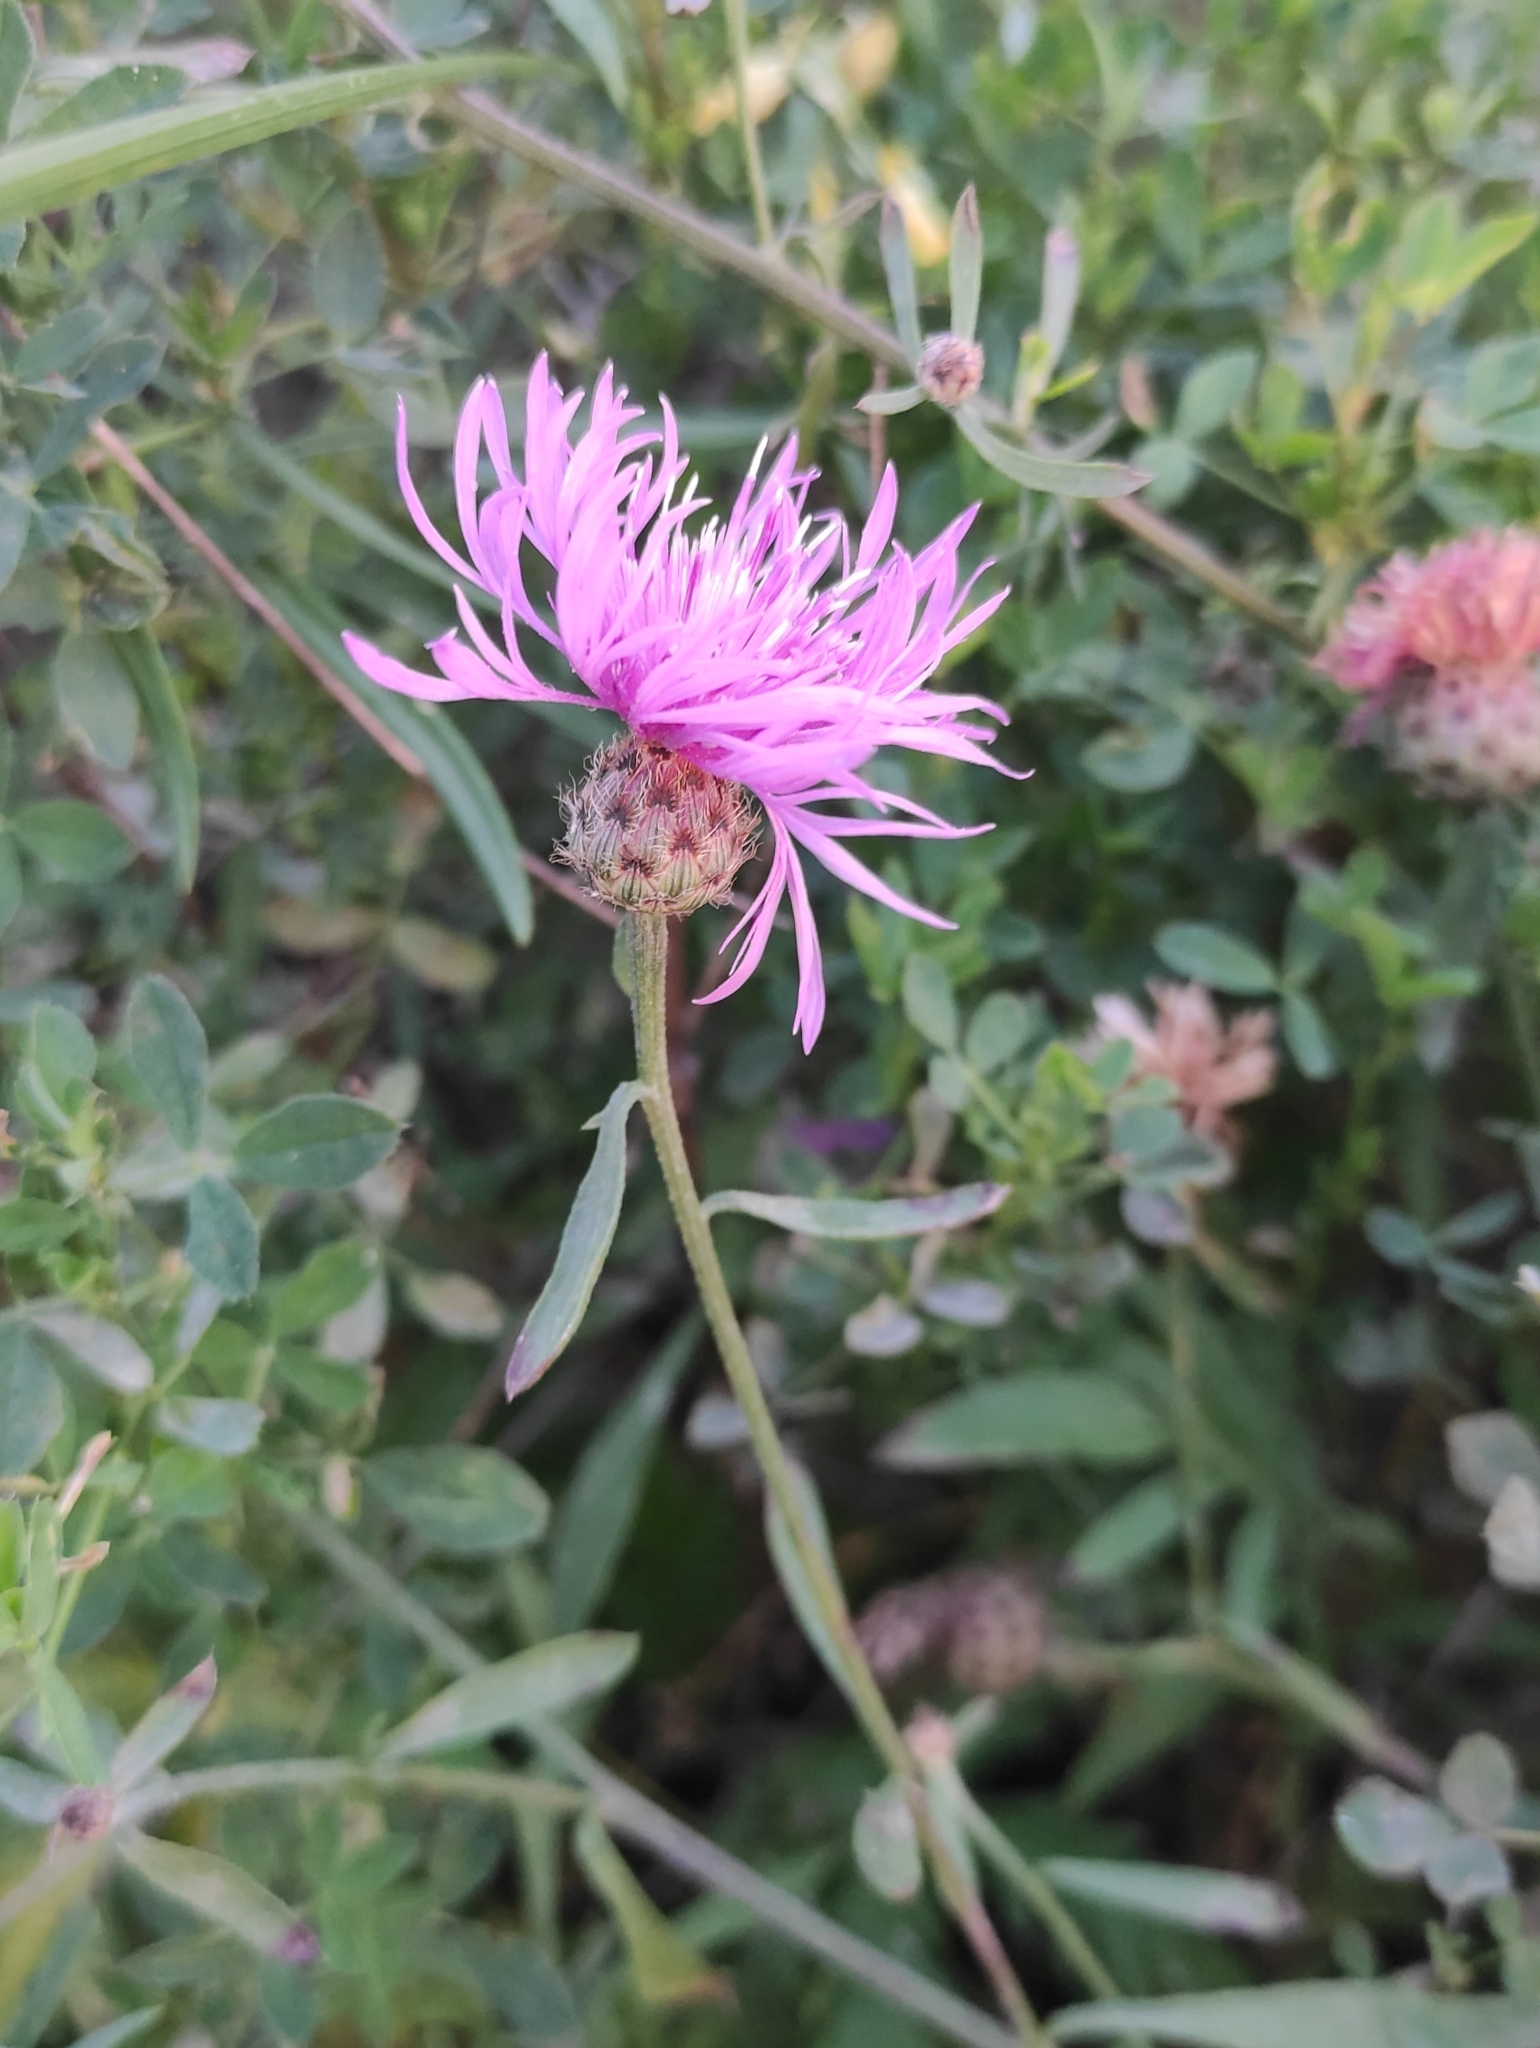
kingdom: Plantae
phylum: Tracheophyta
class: Magnoliopsida
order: Asterales
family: Asteraceae
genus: Centaurea
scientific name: Centaurea stoebe
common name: Spotted knapweed
